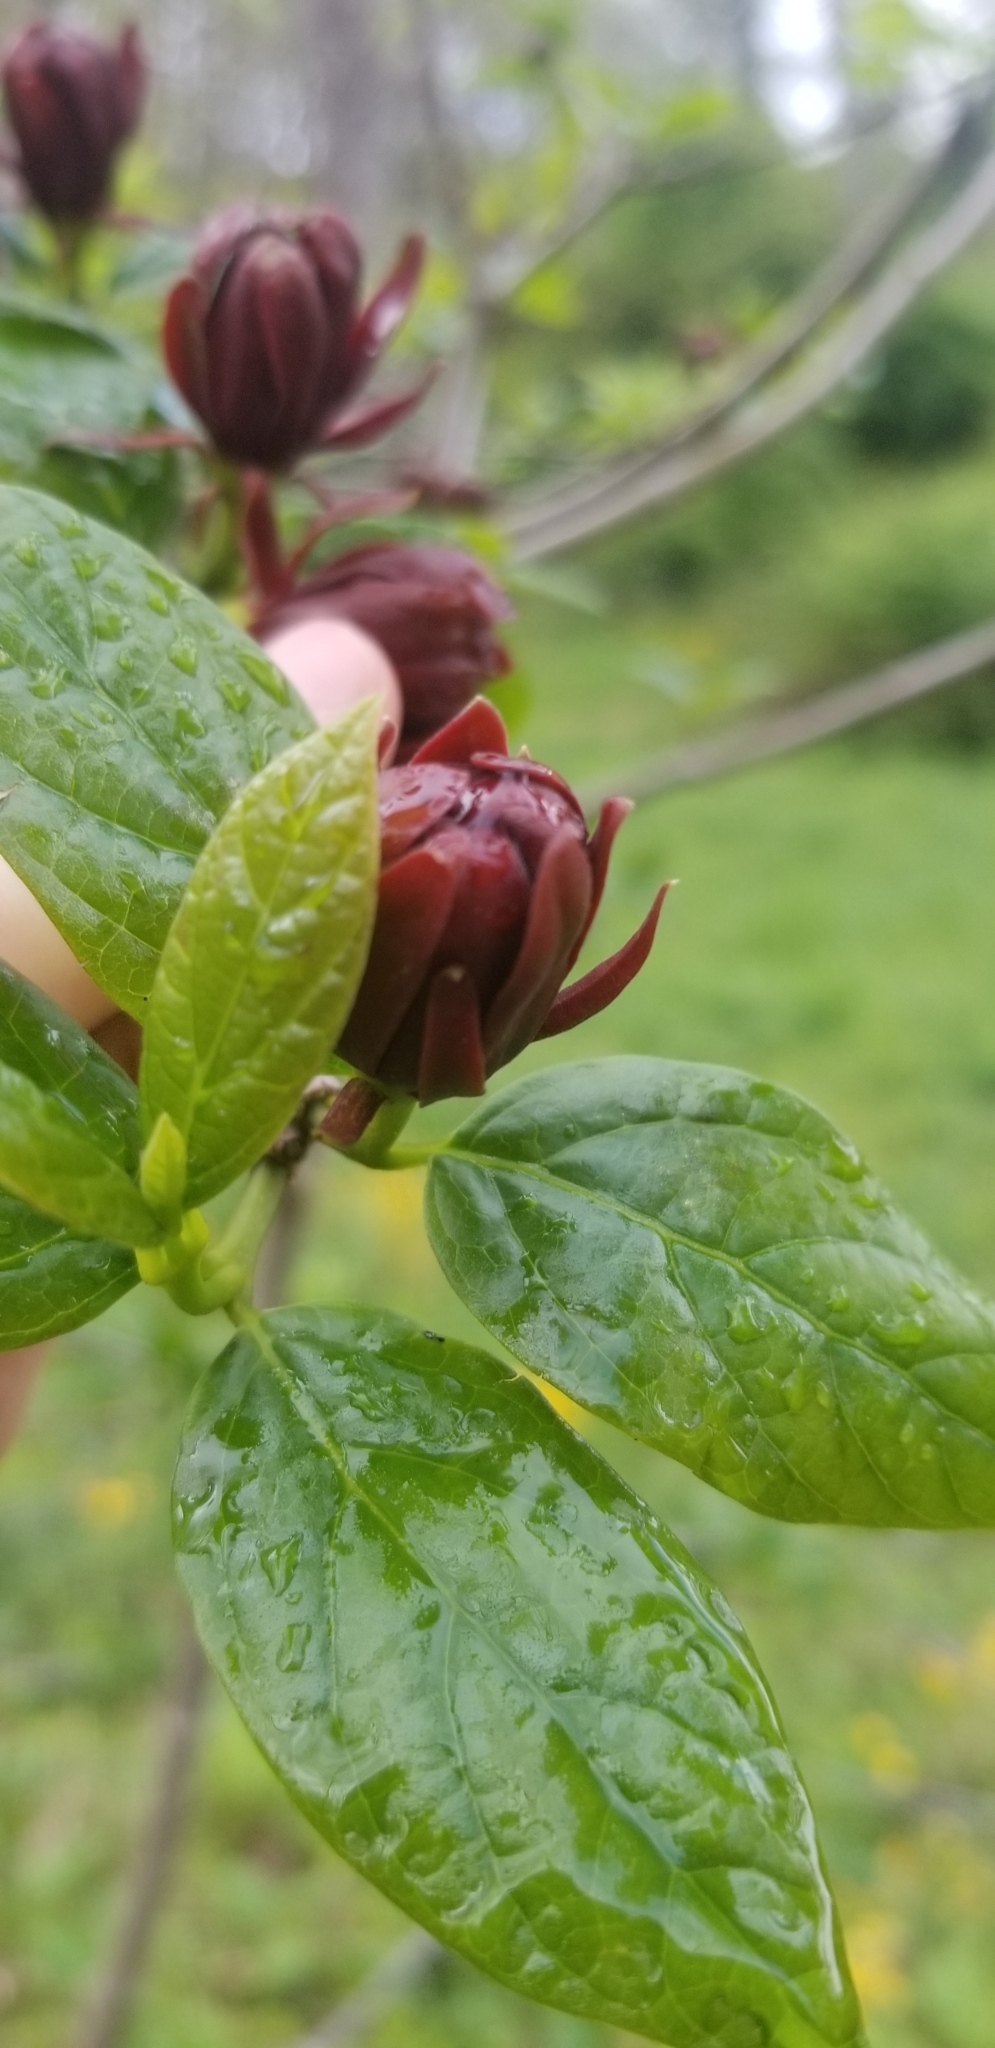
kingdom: Plantae
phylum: Tracheophyta
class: Magnoliopsida
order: Laurales
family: Calycanthaceae
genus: Calycanthus
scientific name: Calycanthus floridus
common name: Carolina-allspice
